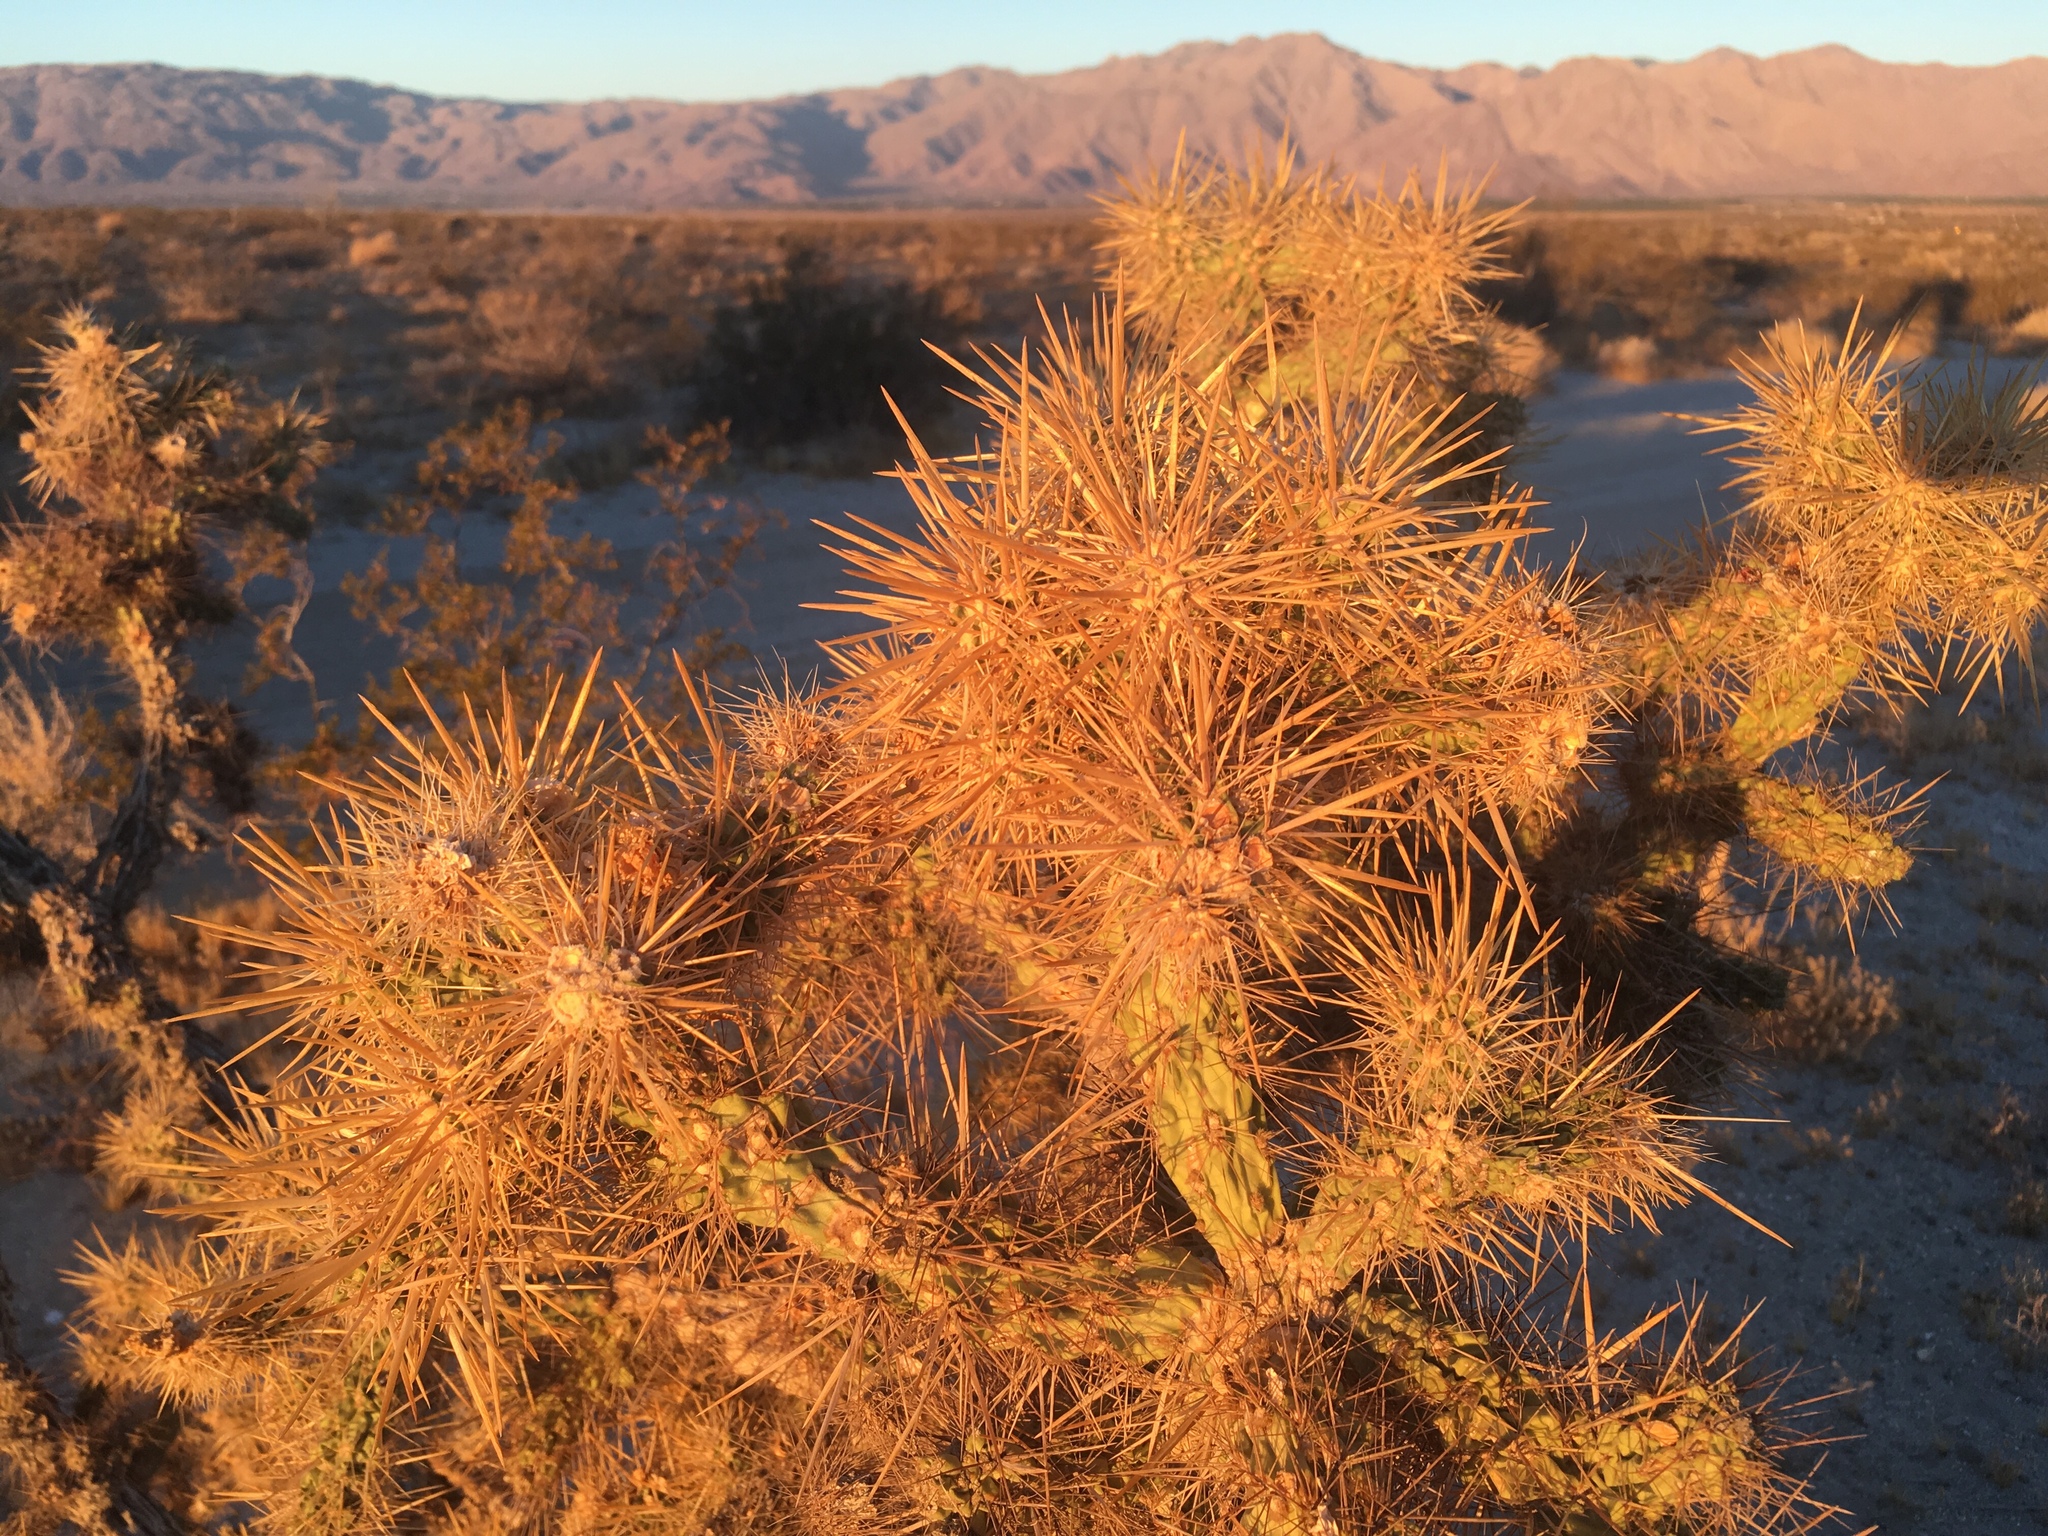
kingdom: Plantae
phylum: Tracheophyta
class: Magnoliopsida
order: Caryophyllales
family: Cactaceae
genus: Cylindropuntia
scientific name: Cylindropuntia echinocarpa
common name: Ground cholla
